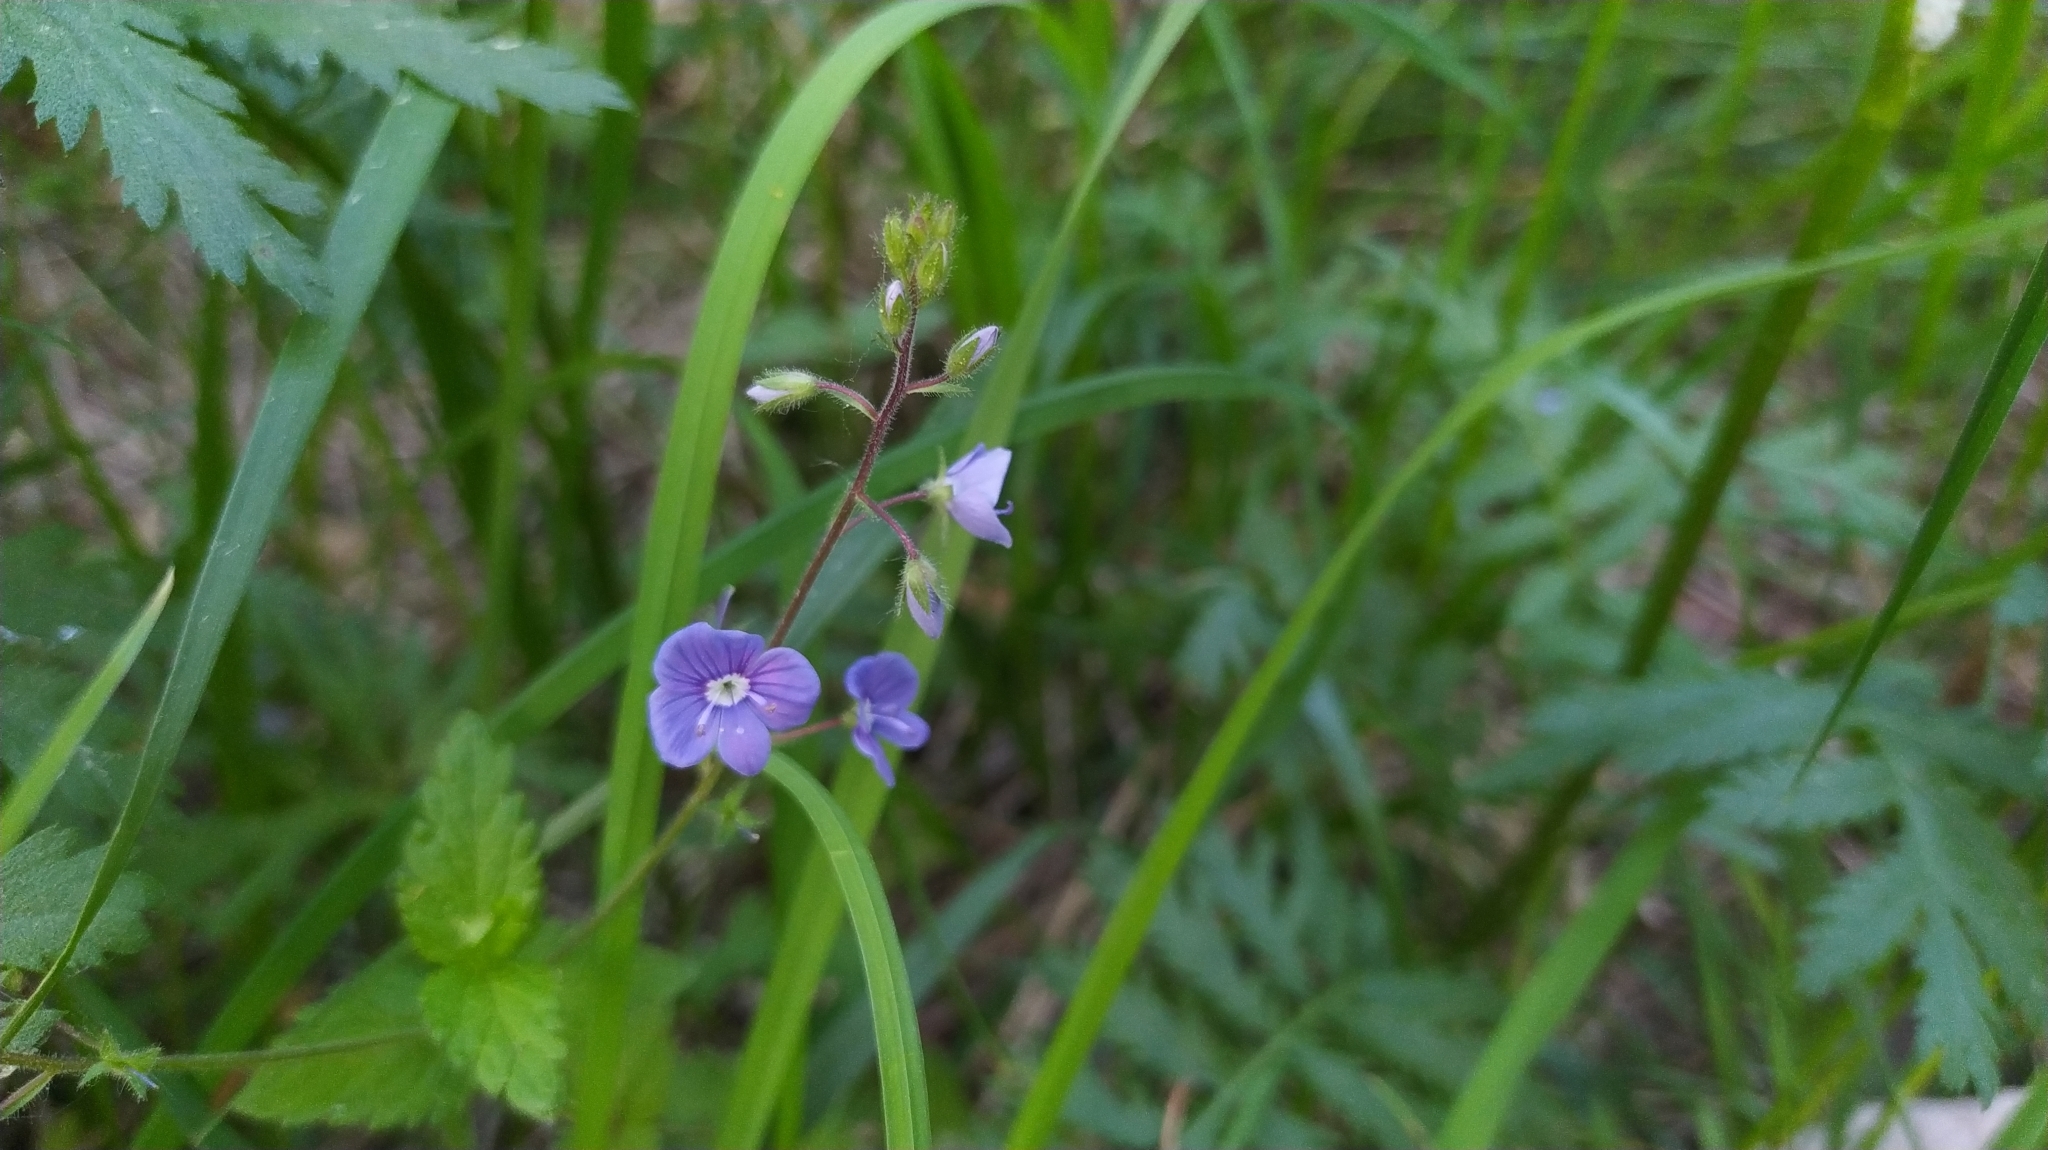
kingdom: Plantae
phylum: Tracheophyta
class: Magnoliopsida
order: Lamiales
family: Plantaginaceae
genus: Veronica
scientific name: Veronica chamaedrys
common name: Germander speedwell
